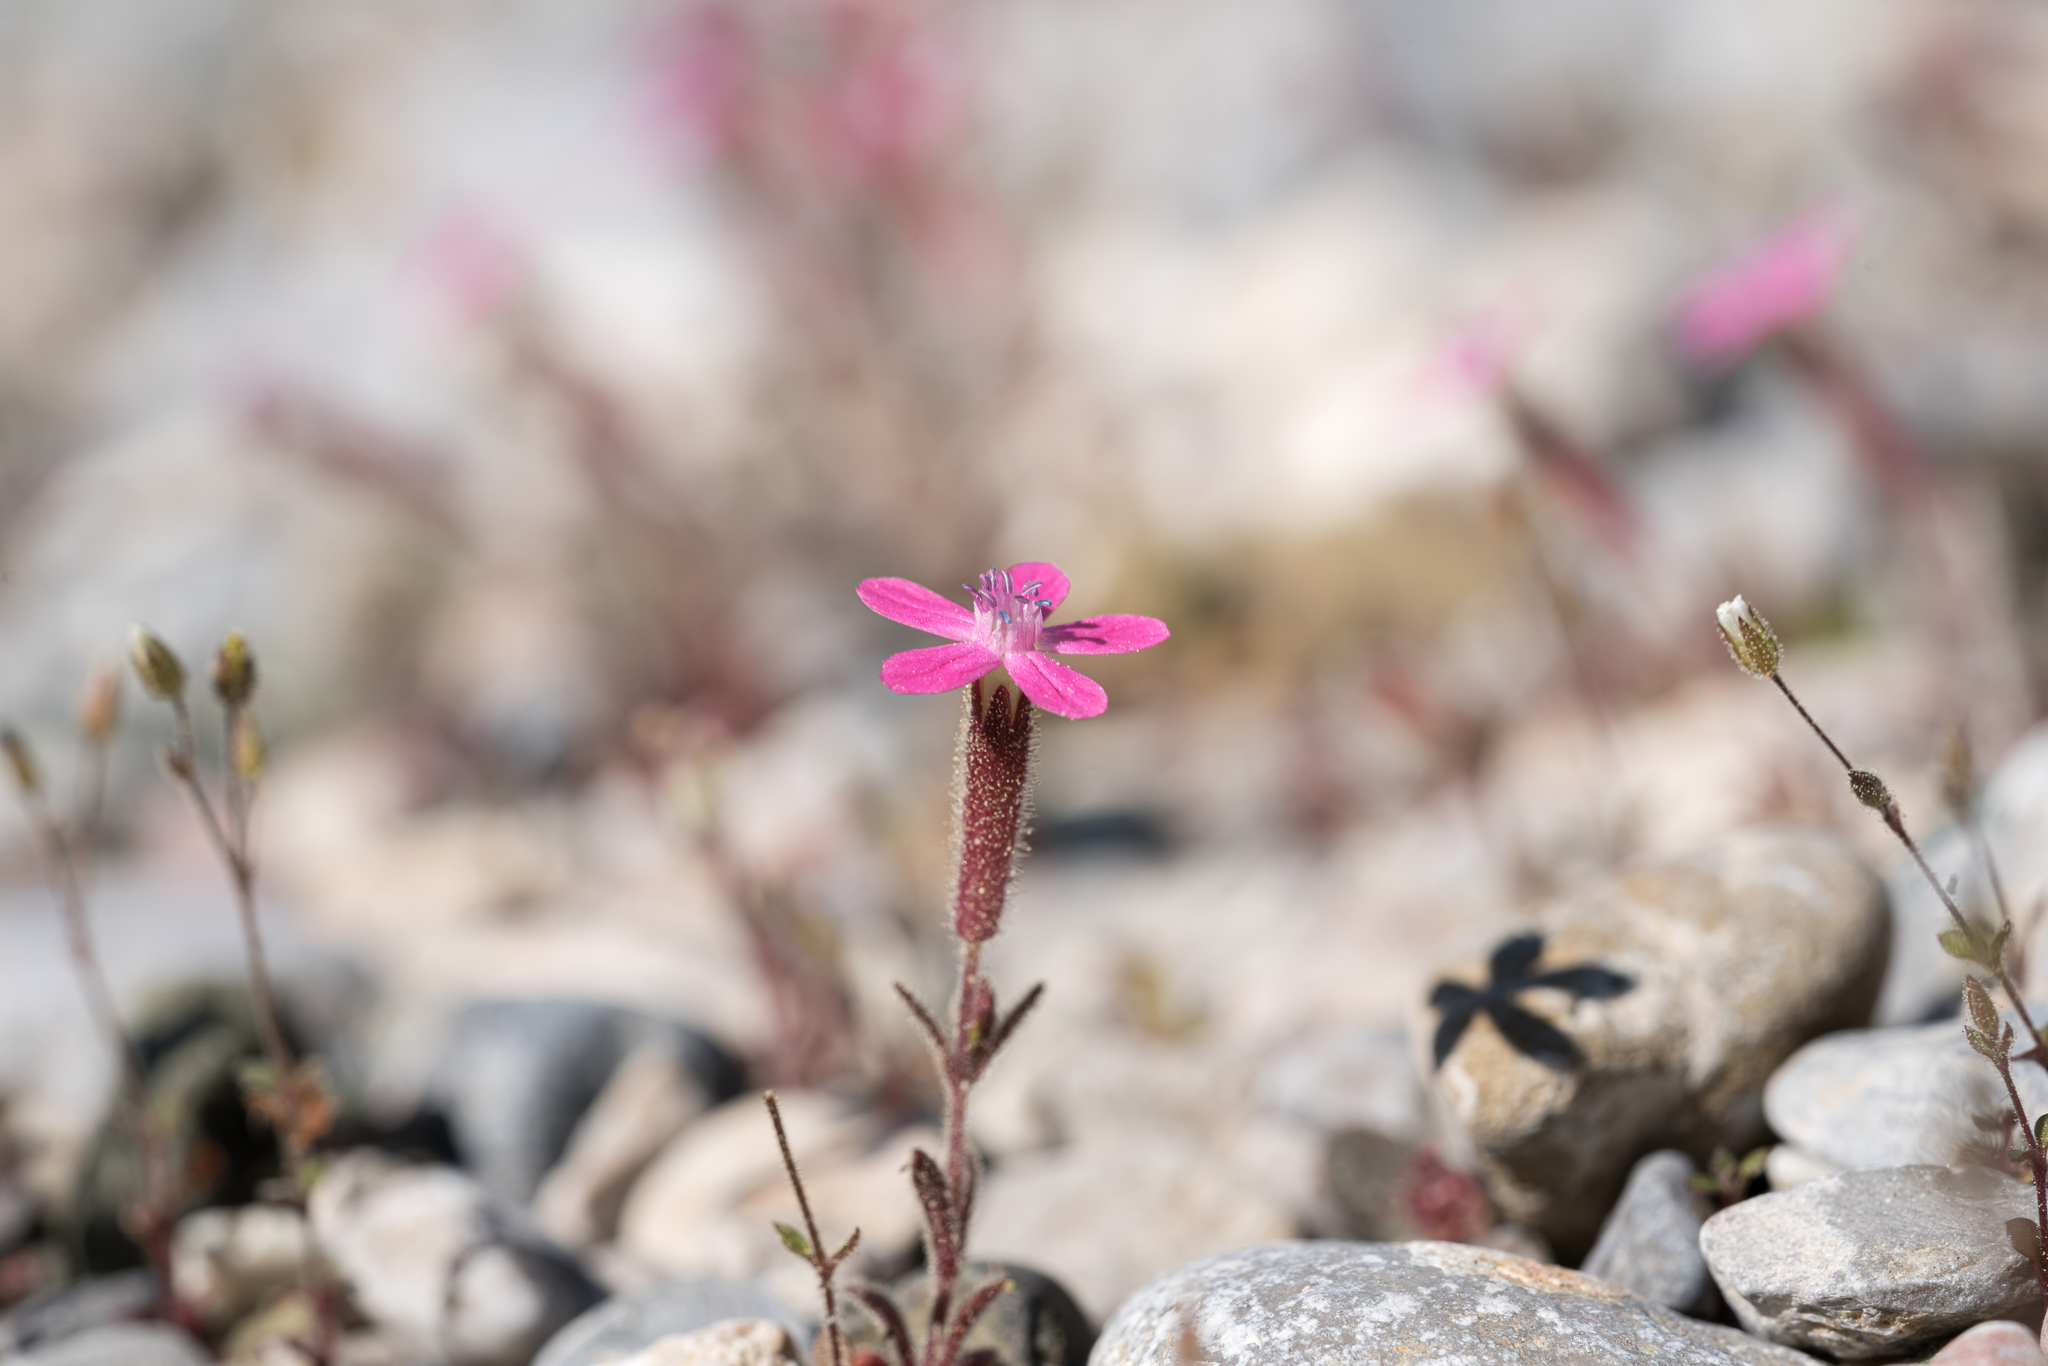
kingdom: Plantae
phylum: Tracheophyta
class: Magnoliopsida
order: Caryophyllales
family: Caryophyllaceae
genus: Silene
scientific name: Silene salamandra
